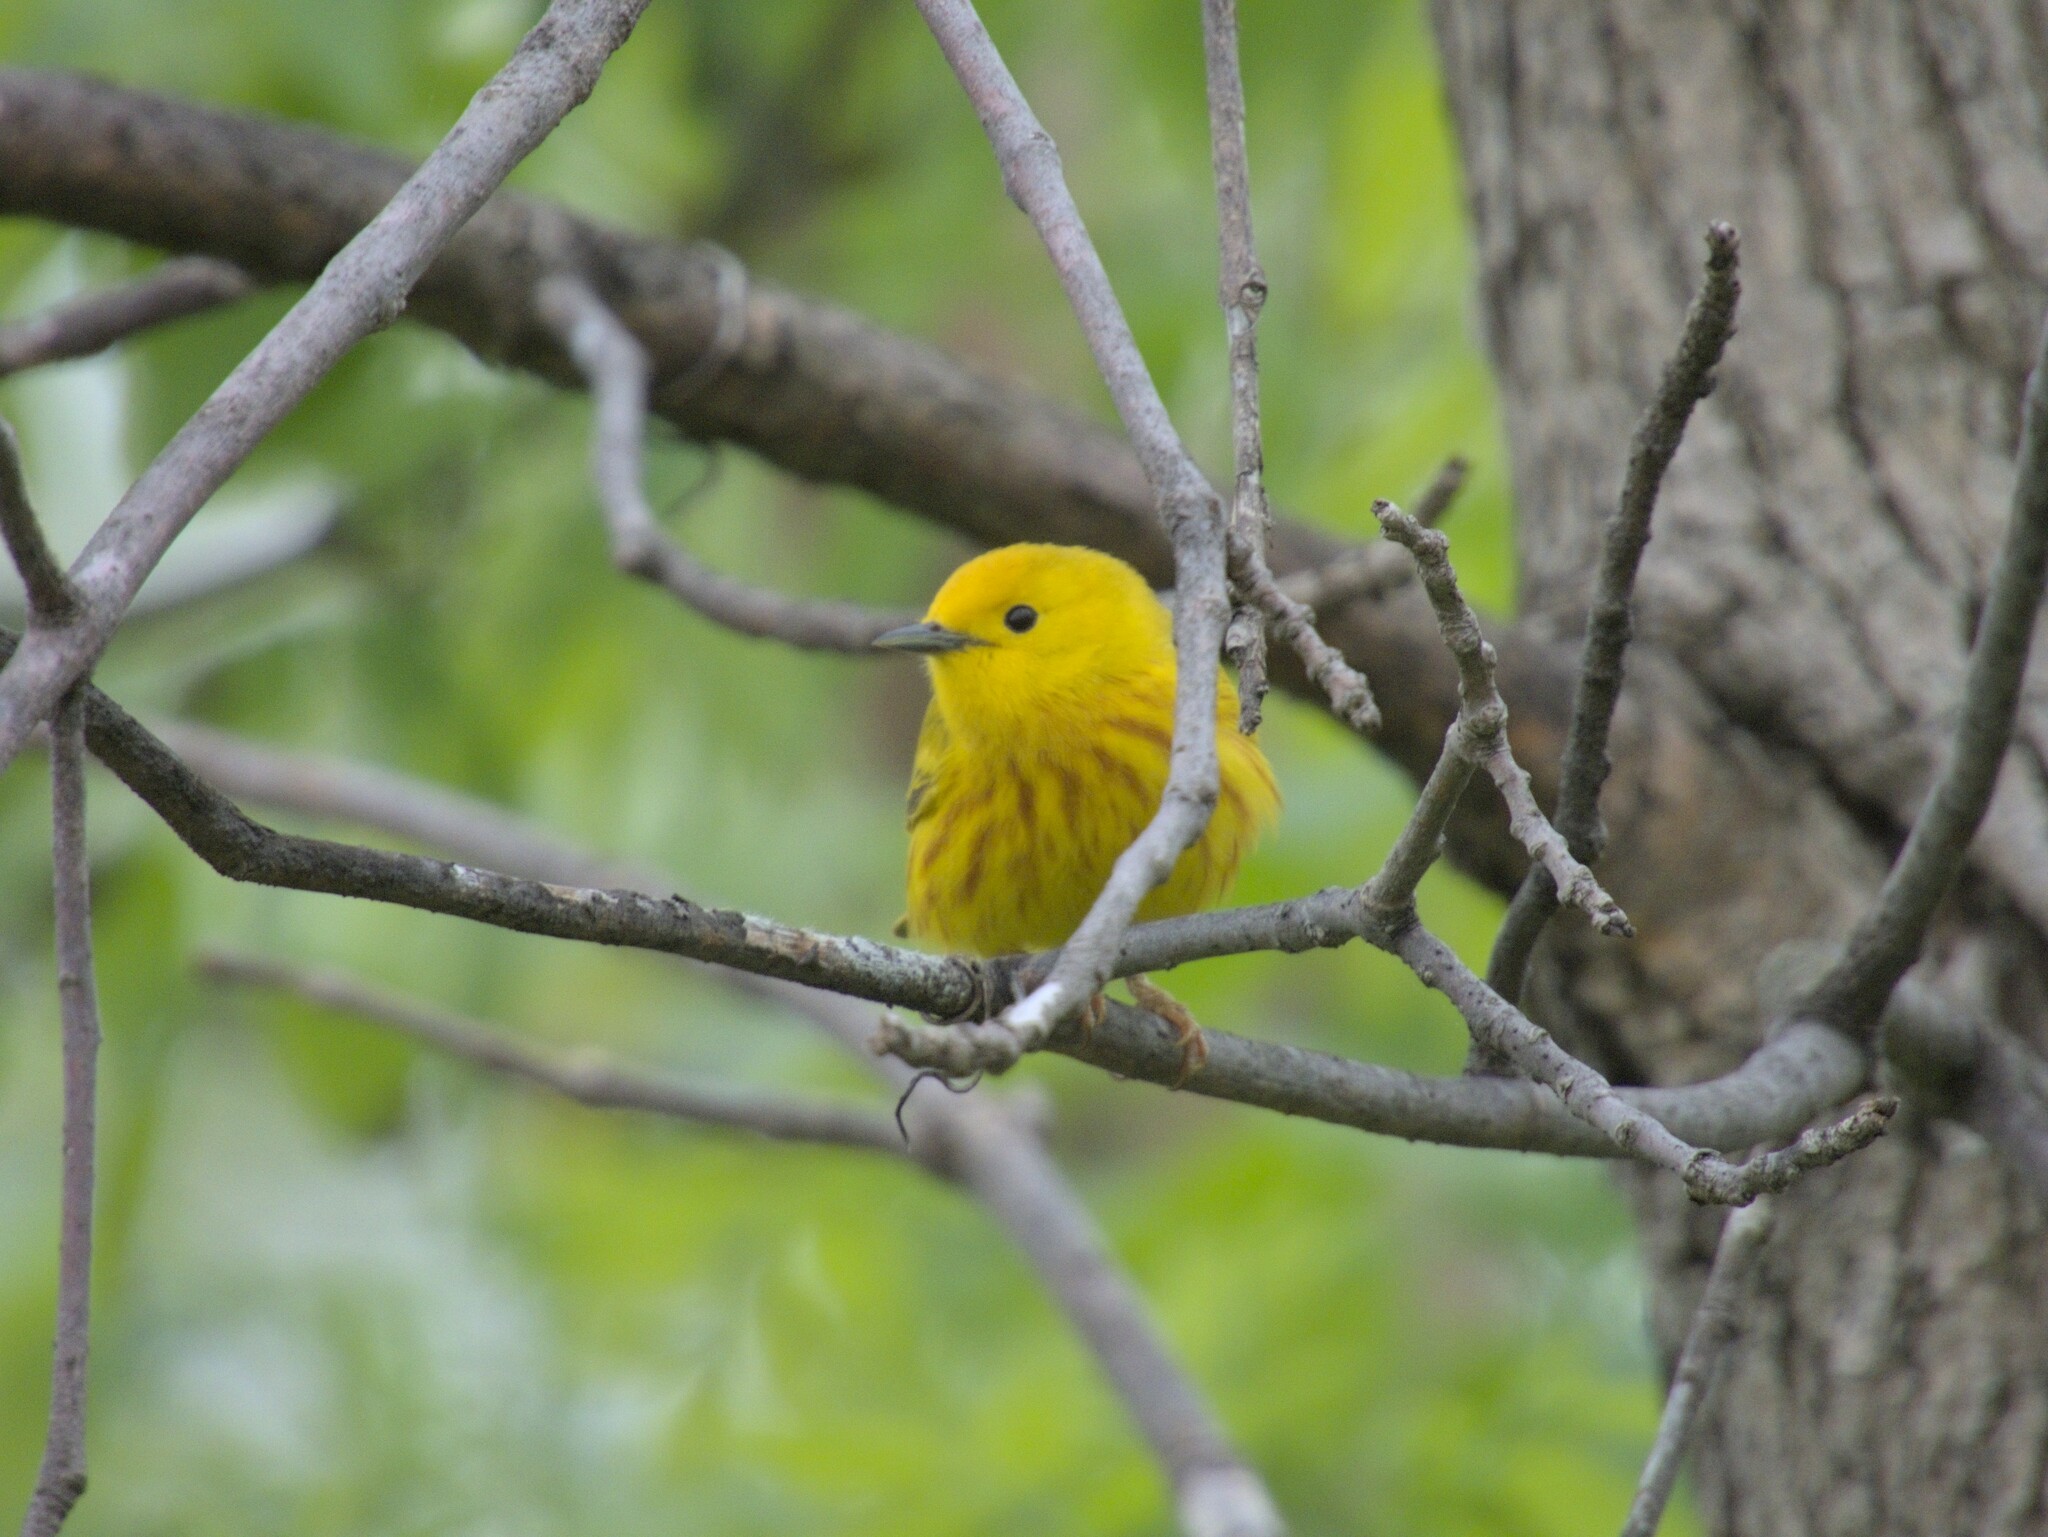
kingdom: Animalia
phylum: Chordata
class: Aves
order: Passeriformes
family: Parulidae
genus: Setophaga
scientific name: Setophaga petechia
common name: Yellow warbler
